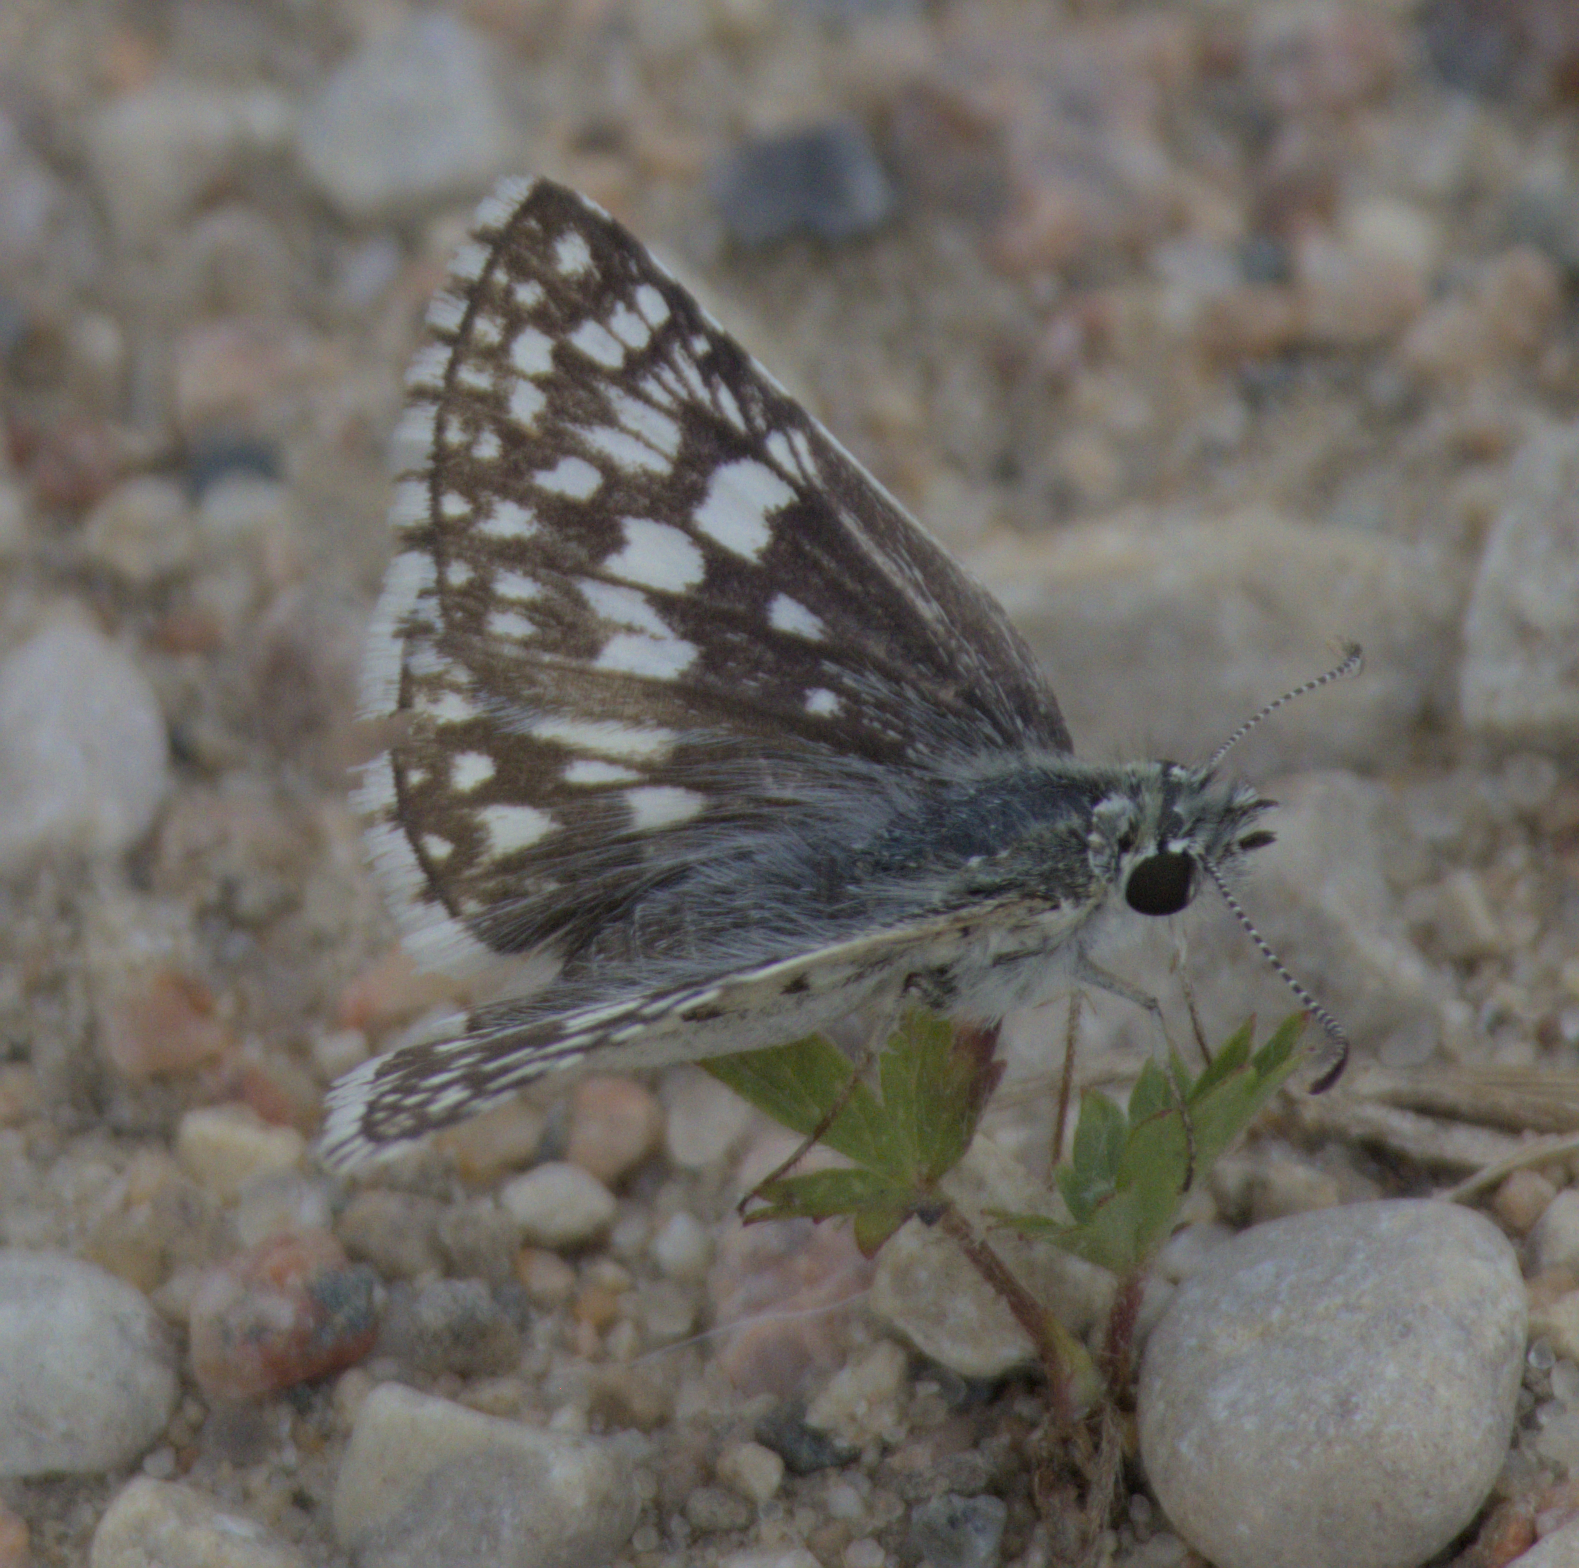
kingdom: Animalia
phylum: Arthropoda
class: Insecta
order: Lepidoptera
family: Hesperiidae
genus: Burnsius
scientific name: Burnsius communis
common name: Common checkered-skipper
